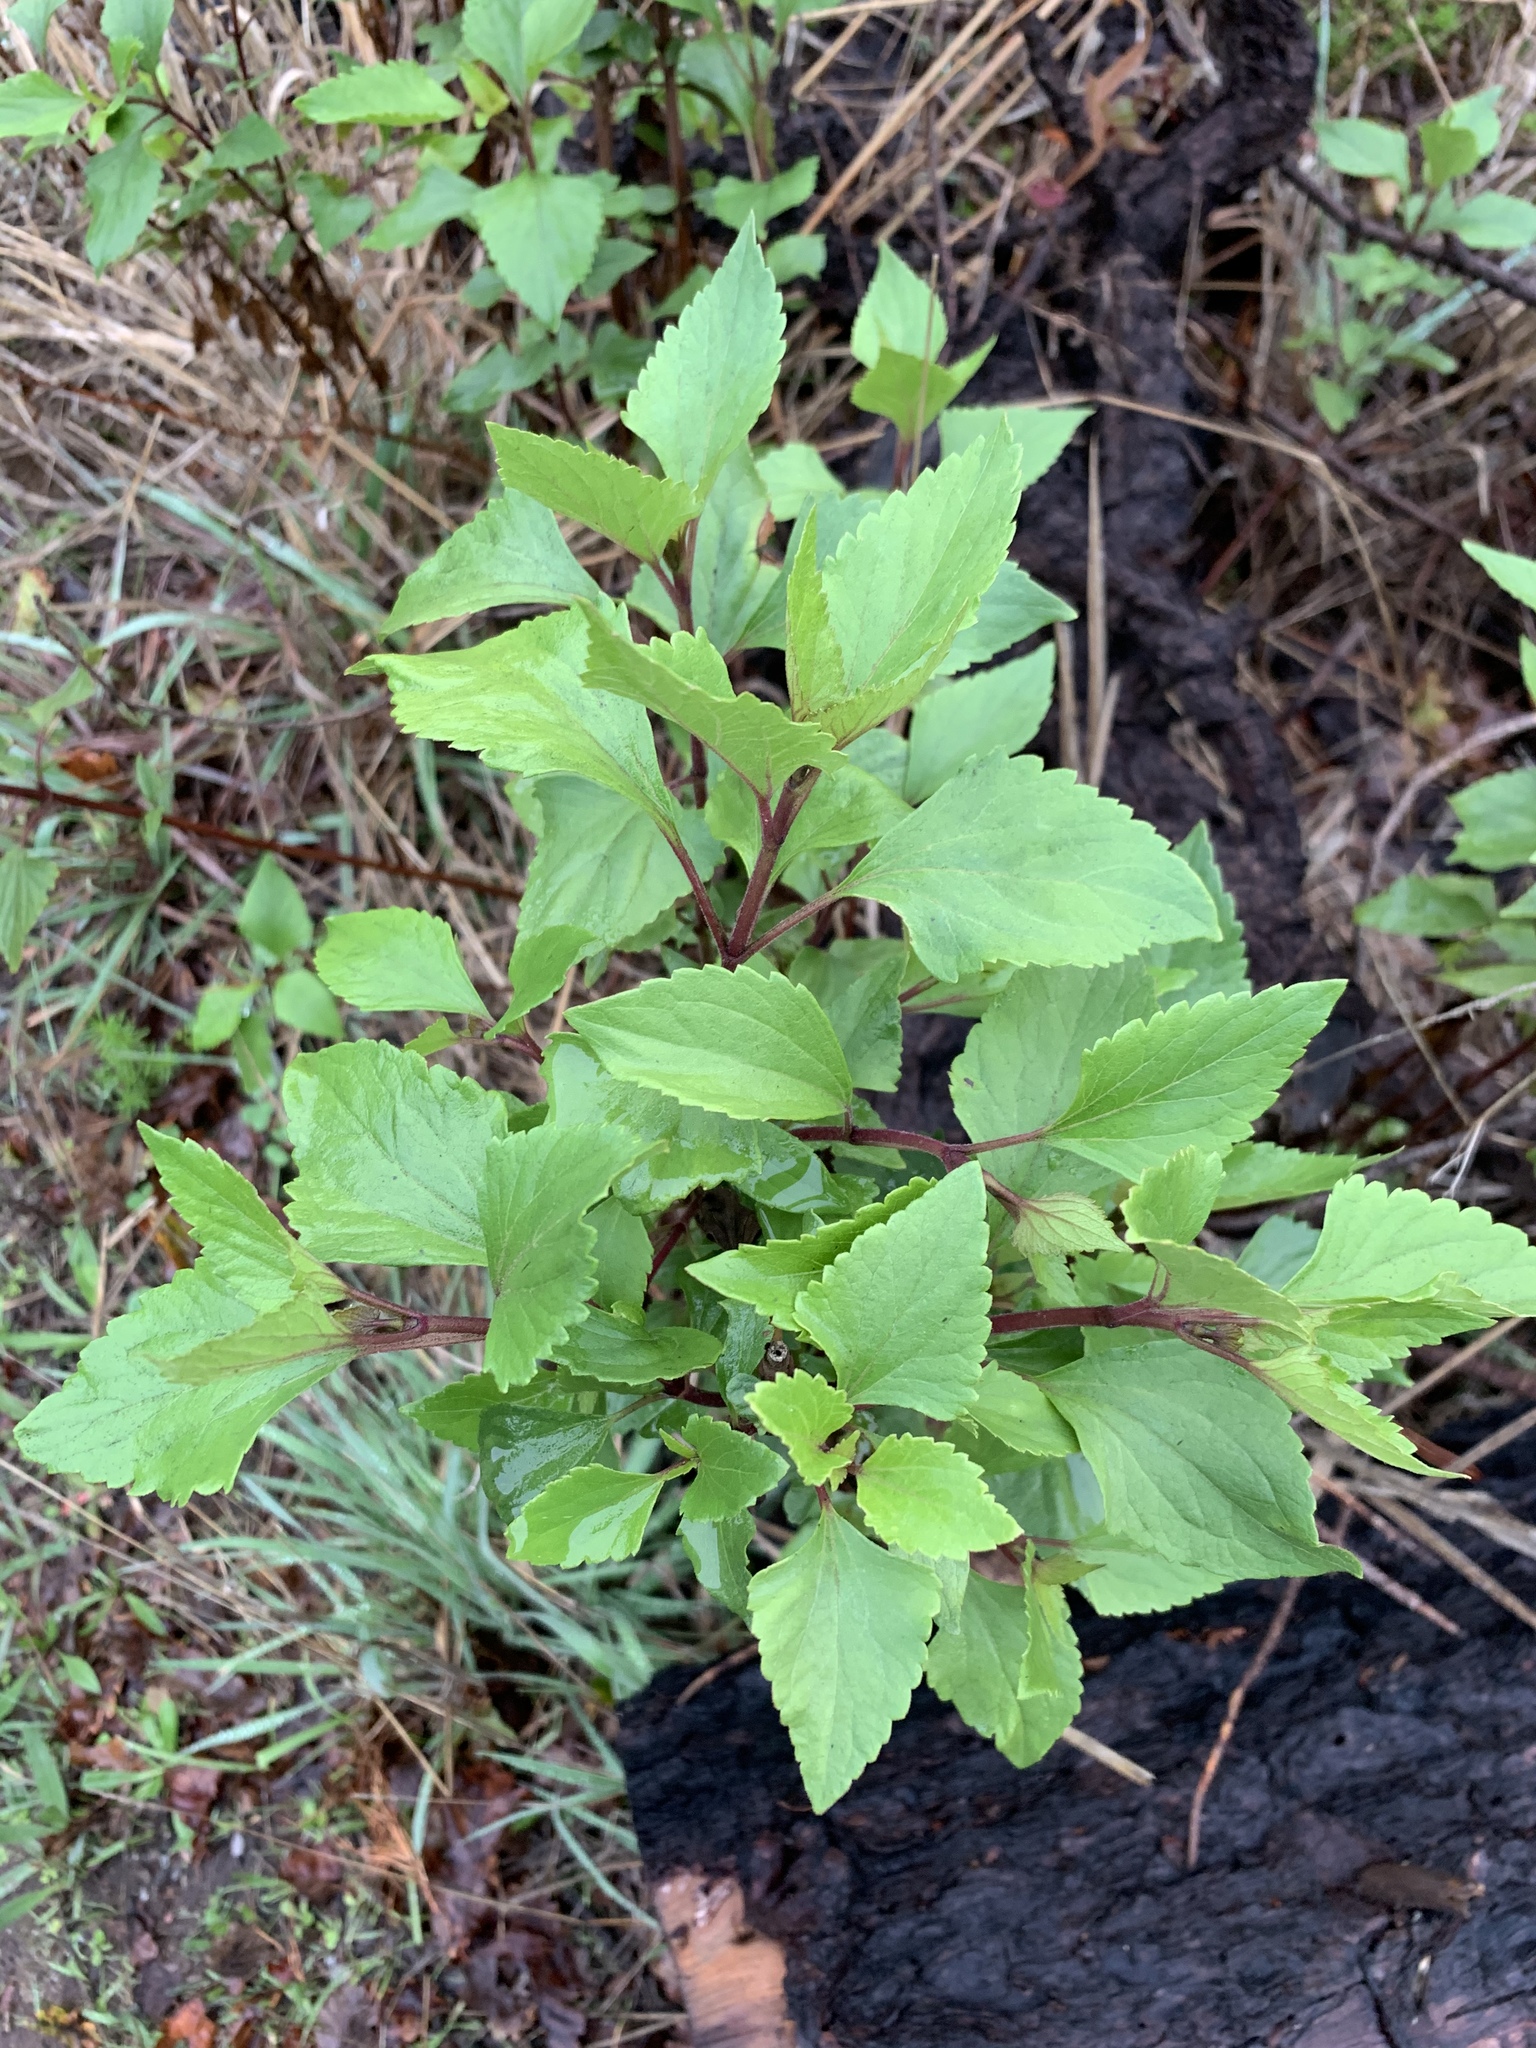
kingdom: Plantae
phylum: Tracheophyta
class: Magnoliopsida
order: Asterales
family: Asteraceae
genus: Ageratina
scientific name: Ageratina adenophora
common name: Sticky snakeroot
